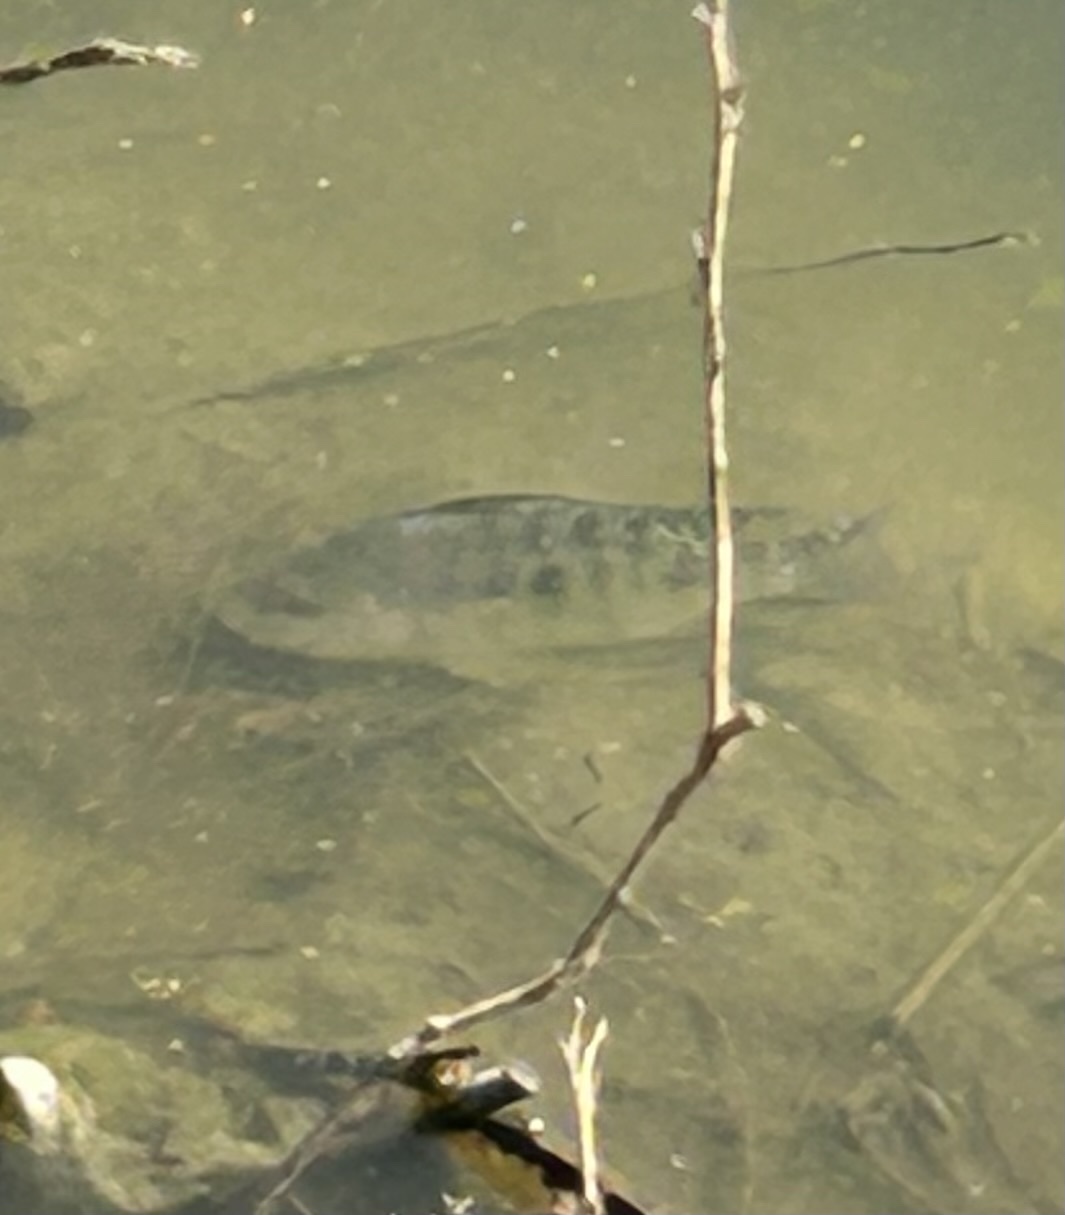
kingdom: Animalia
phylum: Chordata
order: Perciformes
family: Cichlidae
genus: Oreochromis
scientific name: Oreochromis niloticus
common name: Nile tilapia
